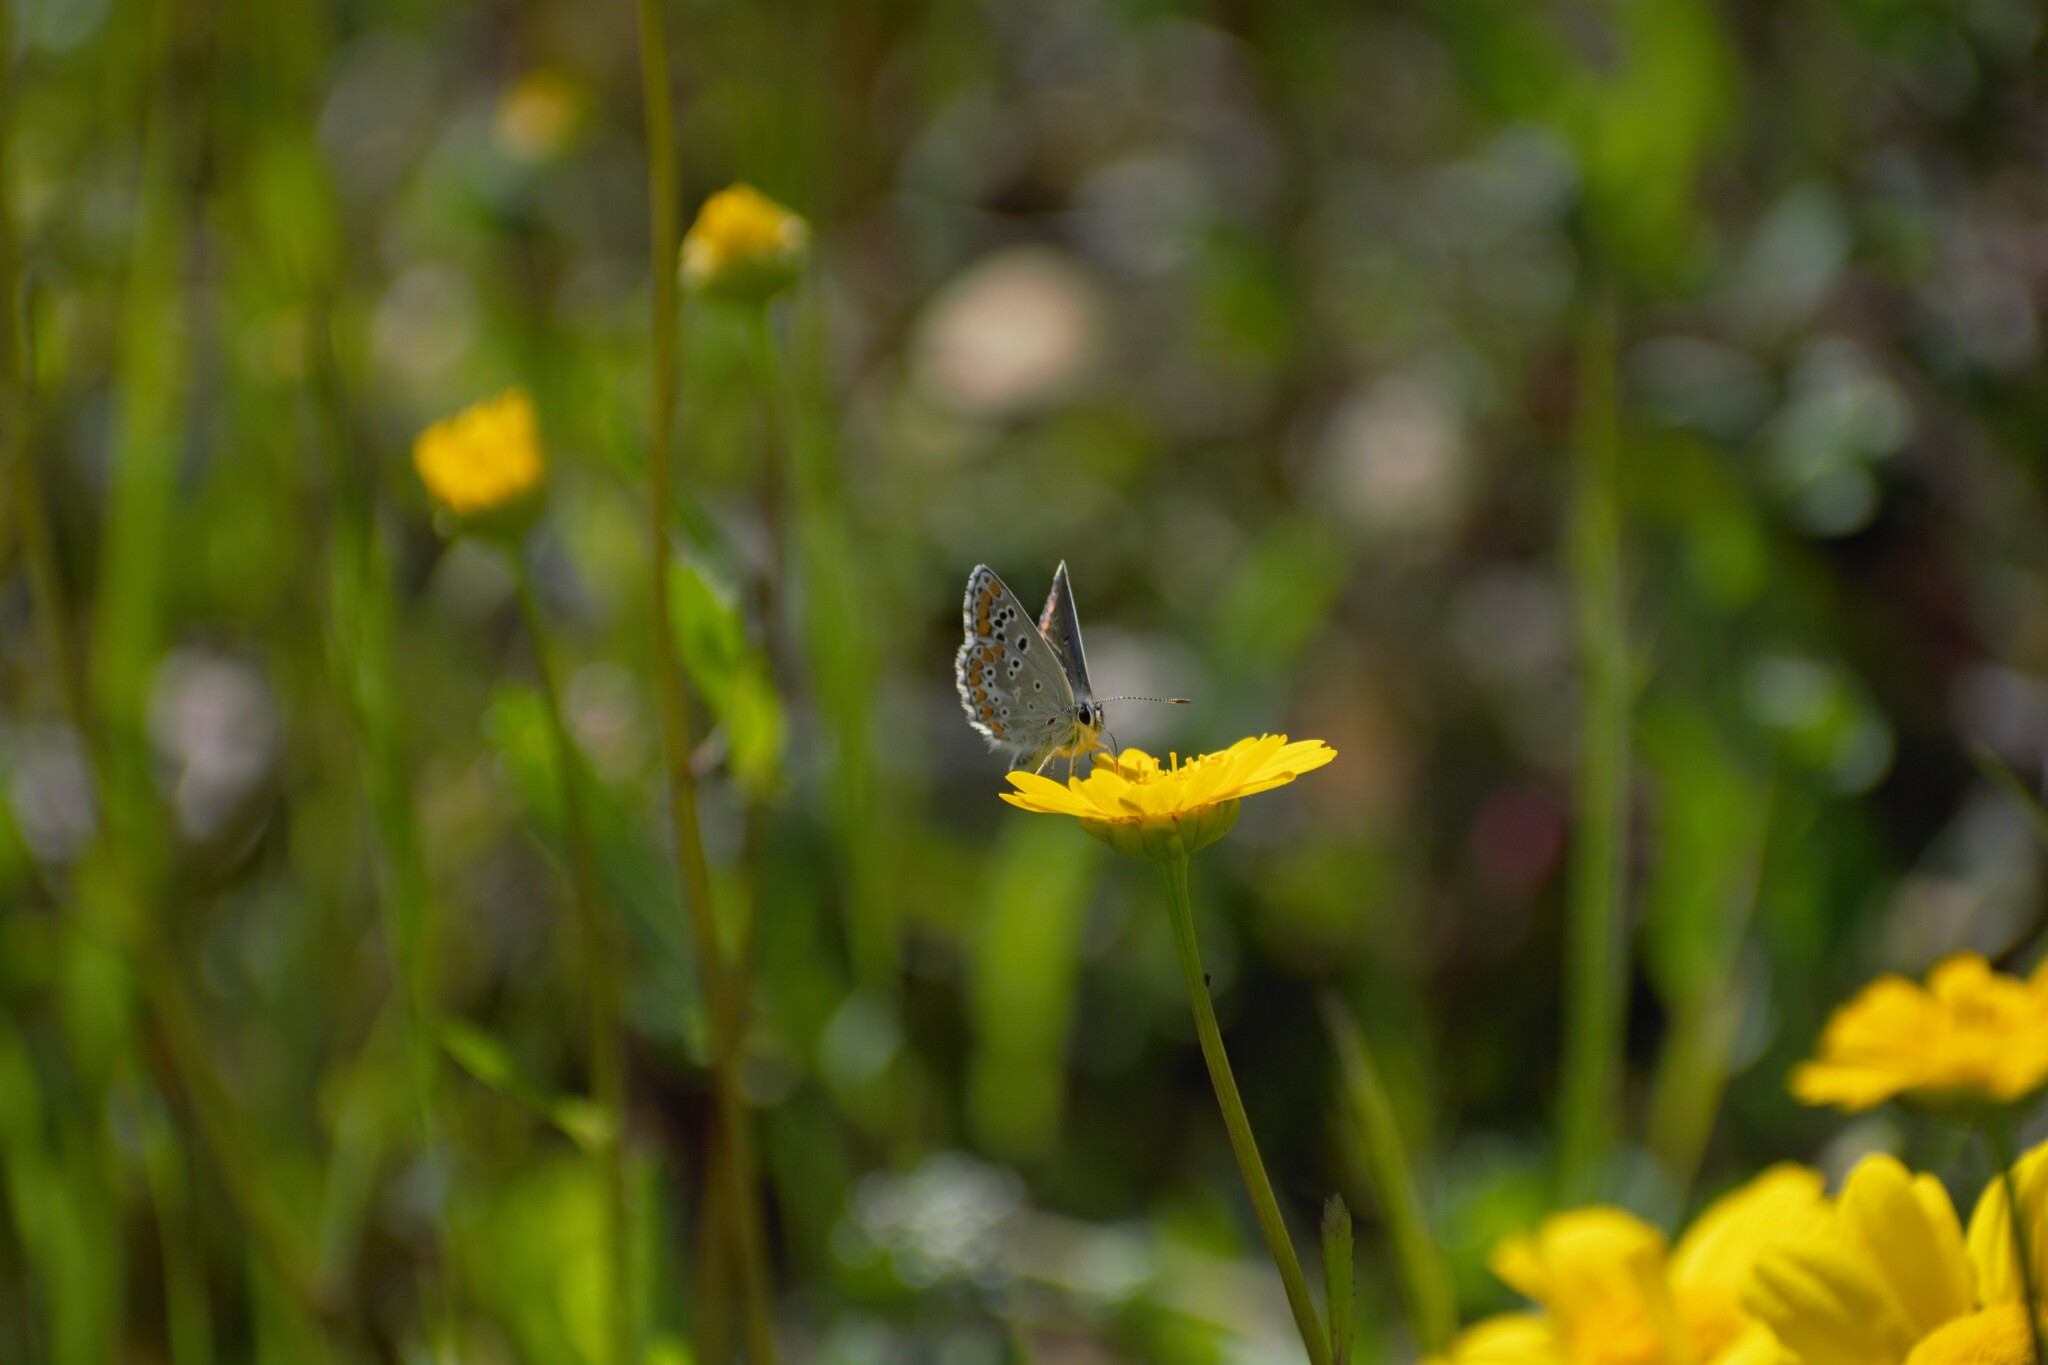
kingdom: Animalia
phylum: Arthropoda
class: Insecta
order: Lepidoptera
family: Lycaenidae
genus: Aricia
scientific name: Aricia cramera
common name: Eschscholtz´s brown  argus
